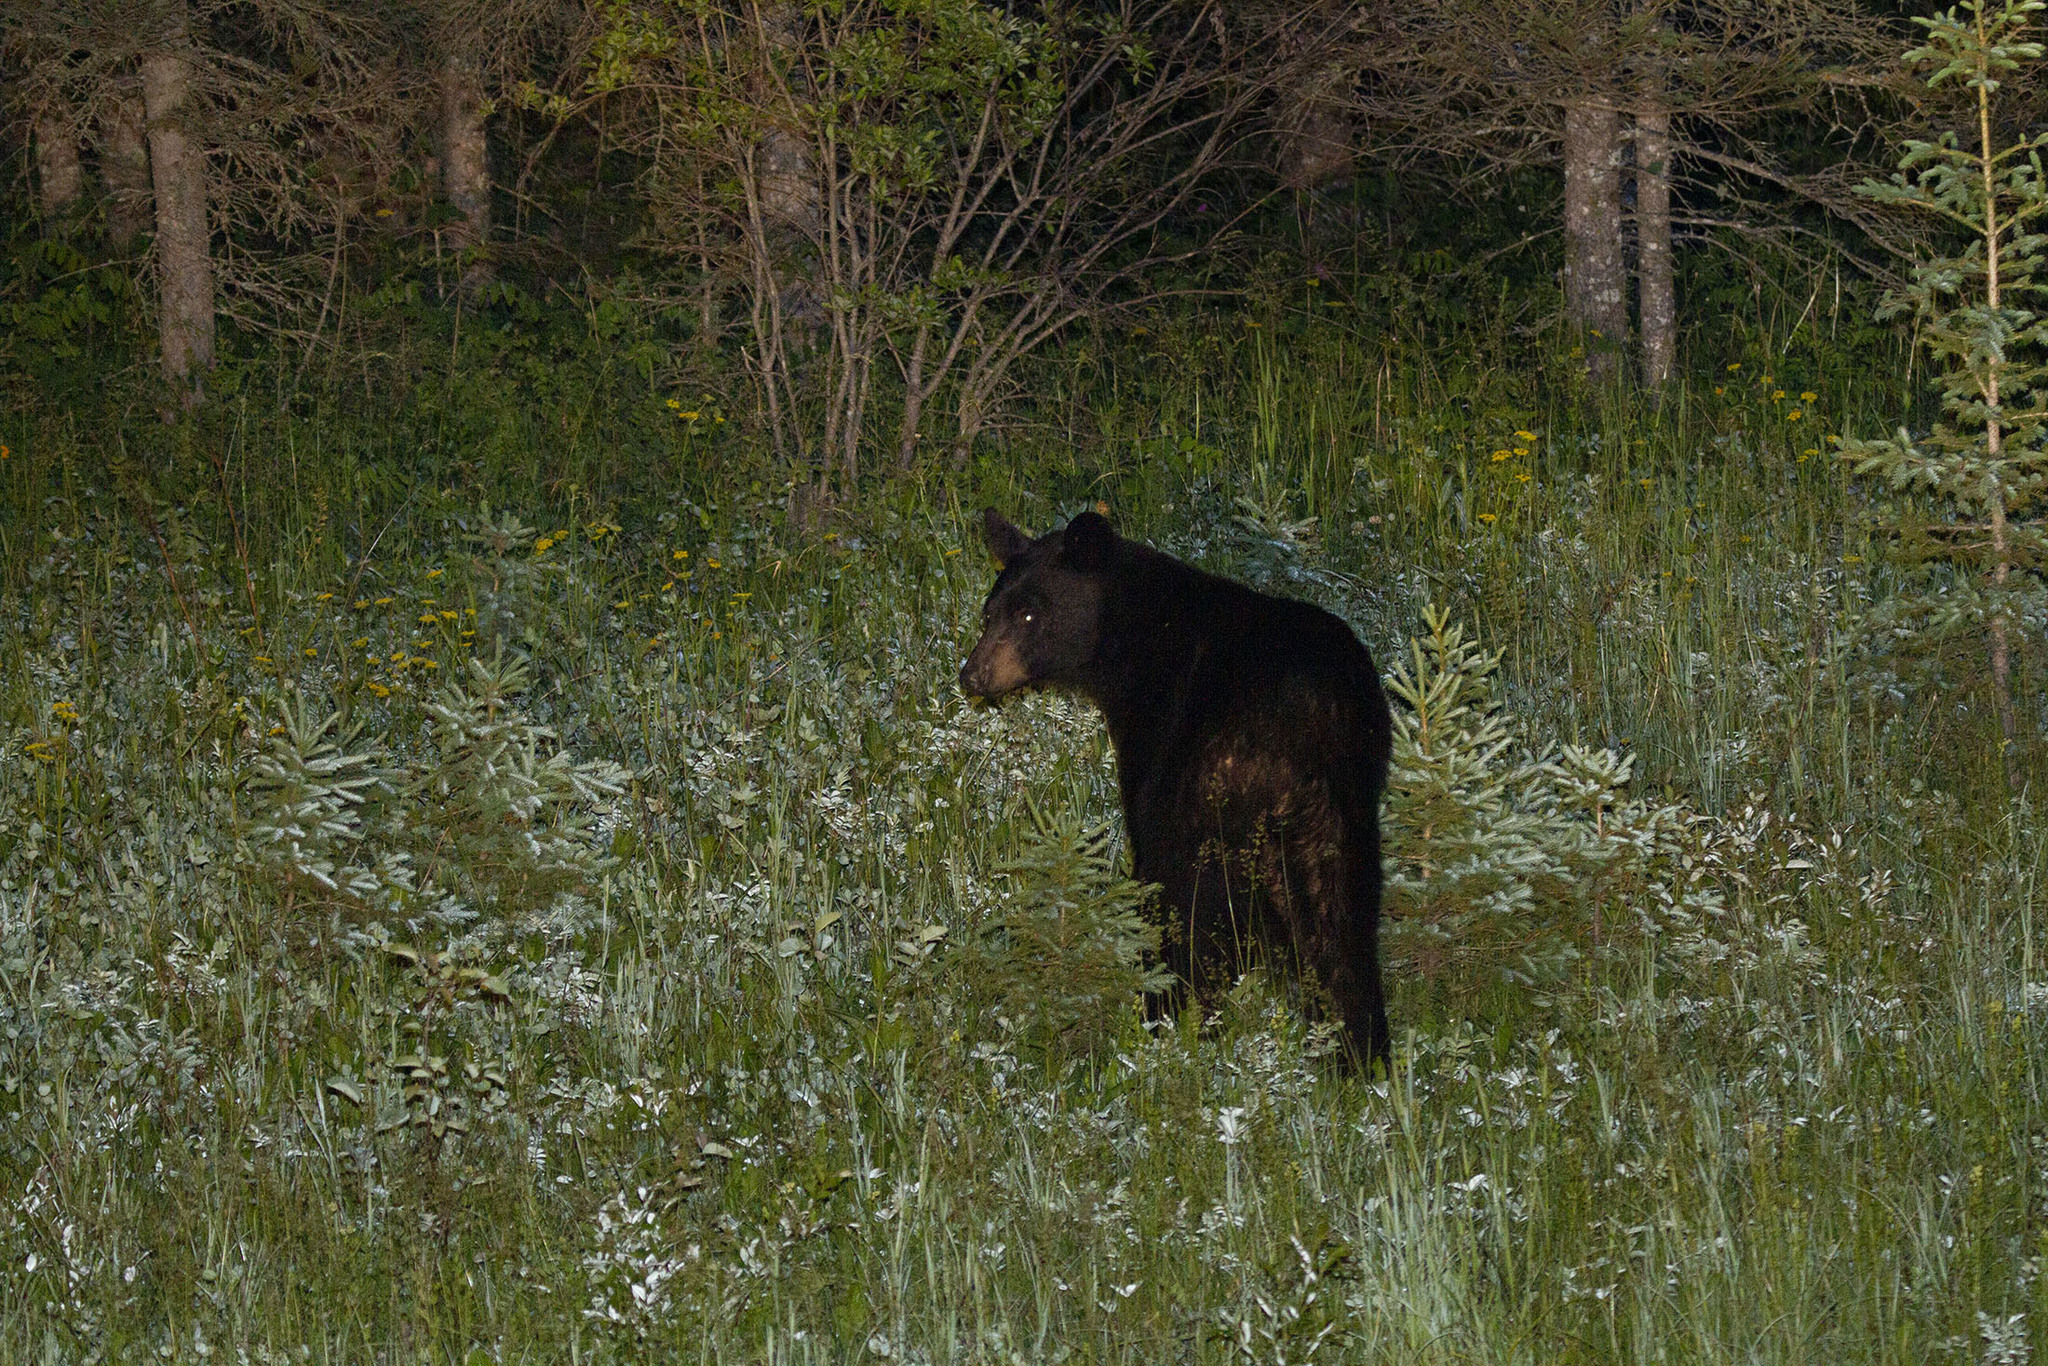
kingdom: Animalia
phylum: Chordata
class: Mammalia
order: Carnivora
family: Ursidae
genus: Ursus
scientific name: Ursus americanus
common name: American black bear
